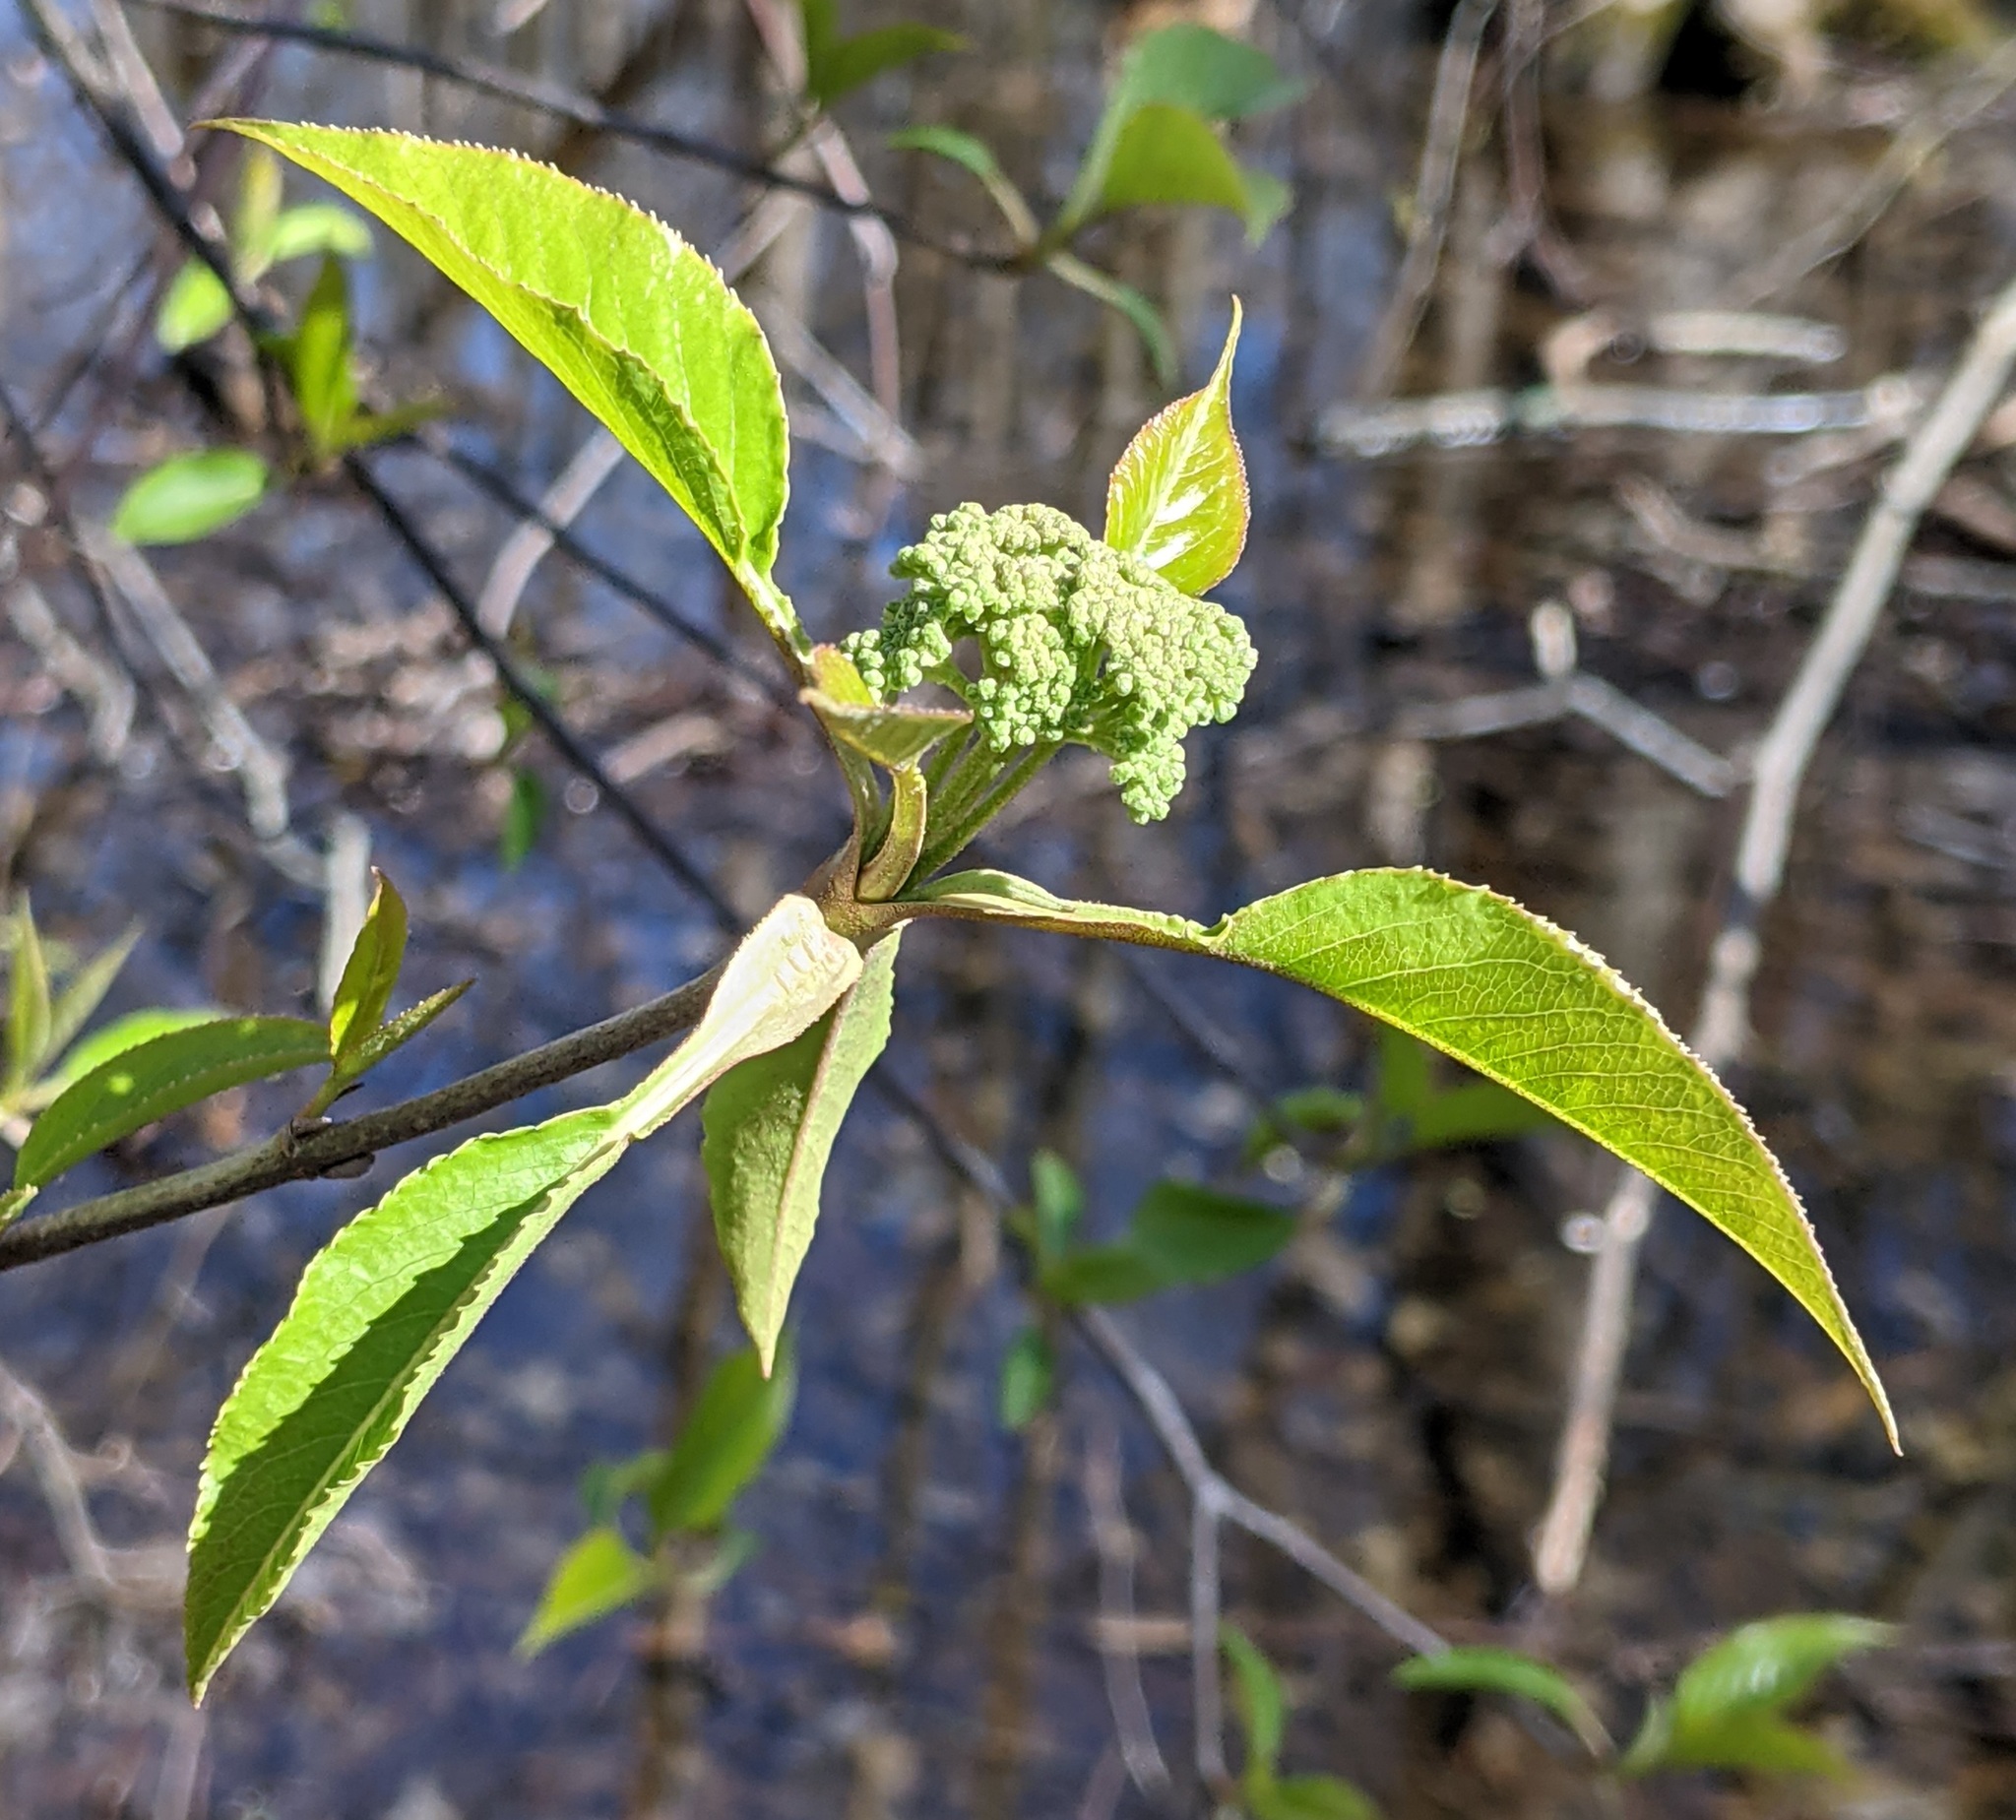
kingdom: Plantae
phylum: Tracheophyta
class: Magnoliopsida
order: Dipsacales
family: Viburnaceae
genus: Viburnum
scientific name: Viburnum lentago
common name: Black haw
